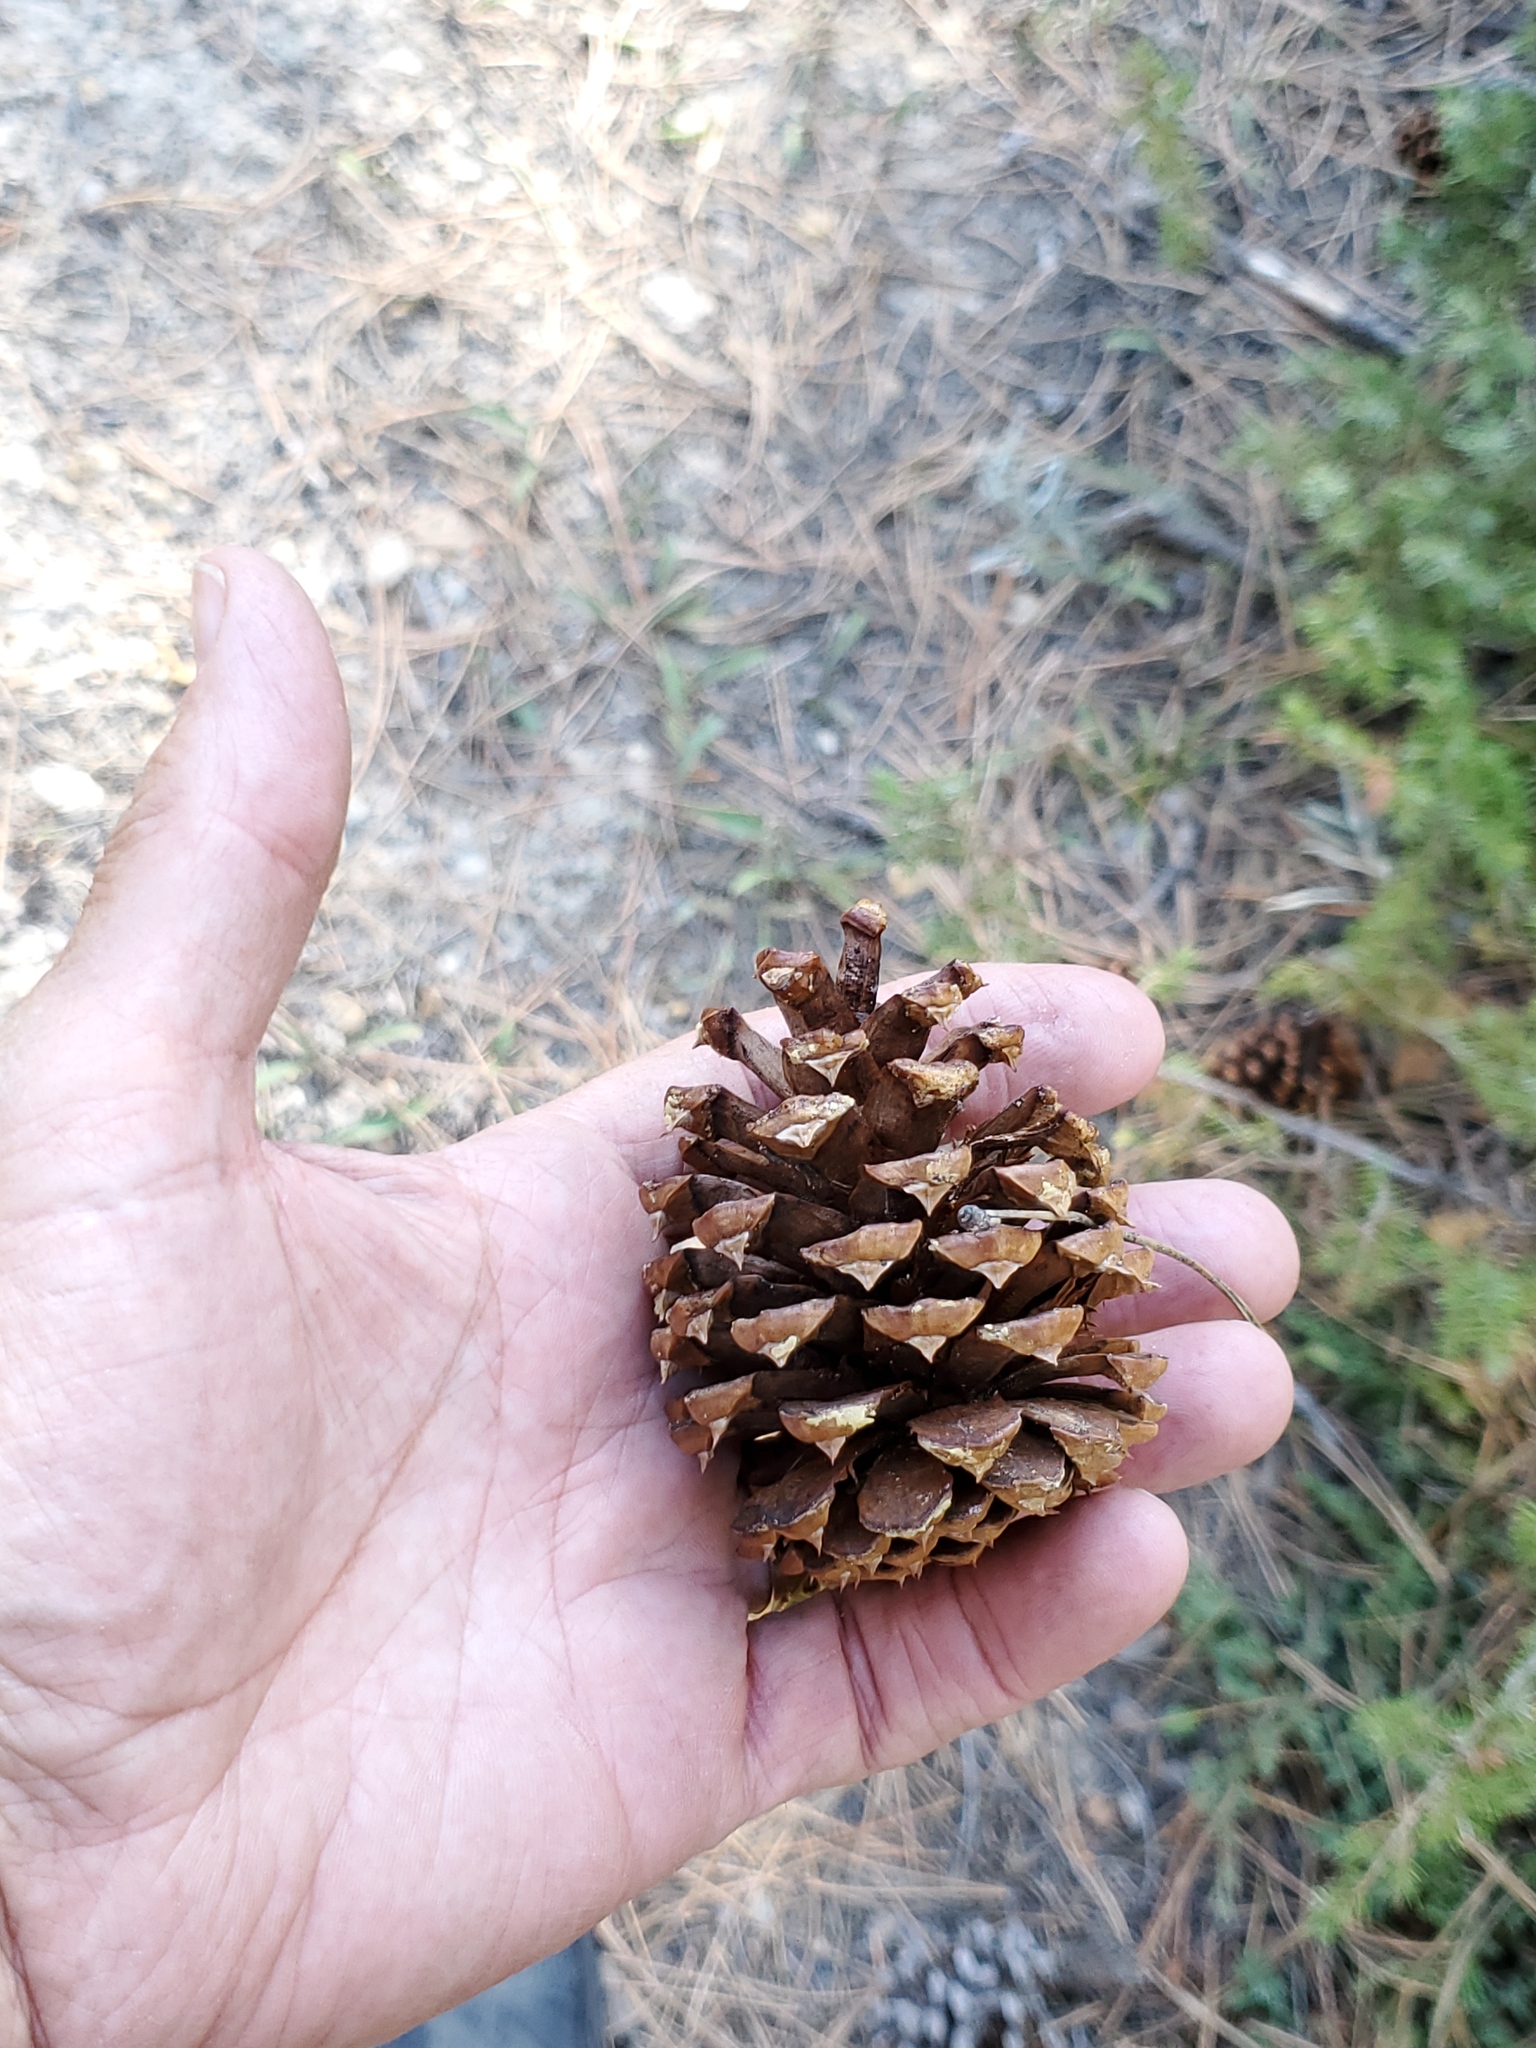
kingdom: Plantae
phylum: Tracheophyta
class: Pinopsida
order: Pinales
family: Pinaceae
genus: Pinus
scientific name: Pinus ponderosa
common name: Western yellow-pine
